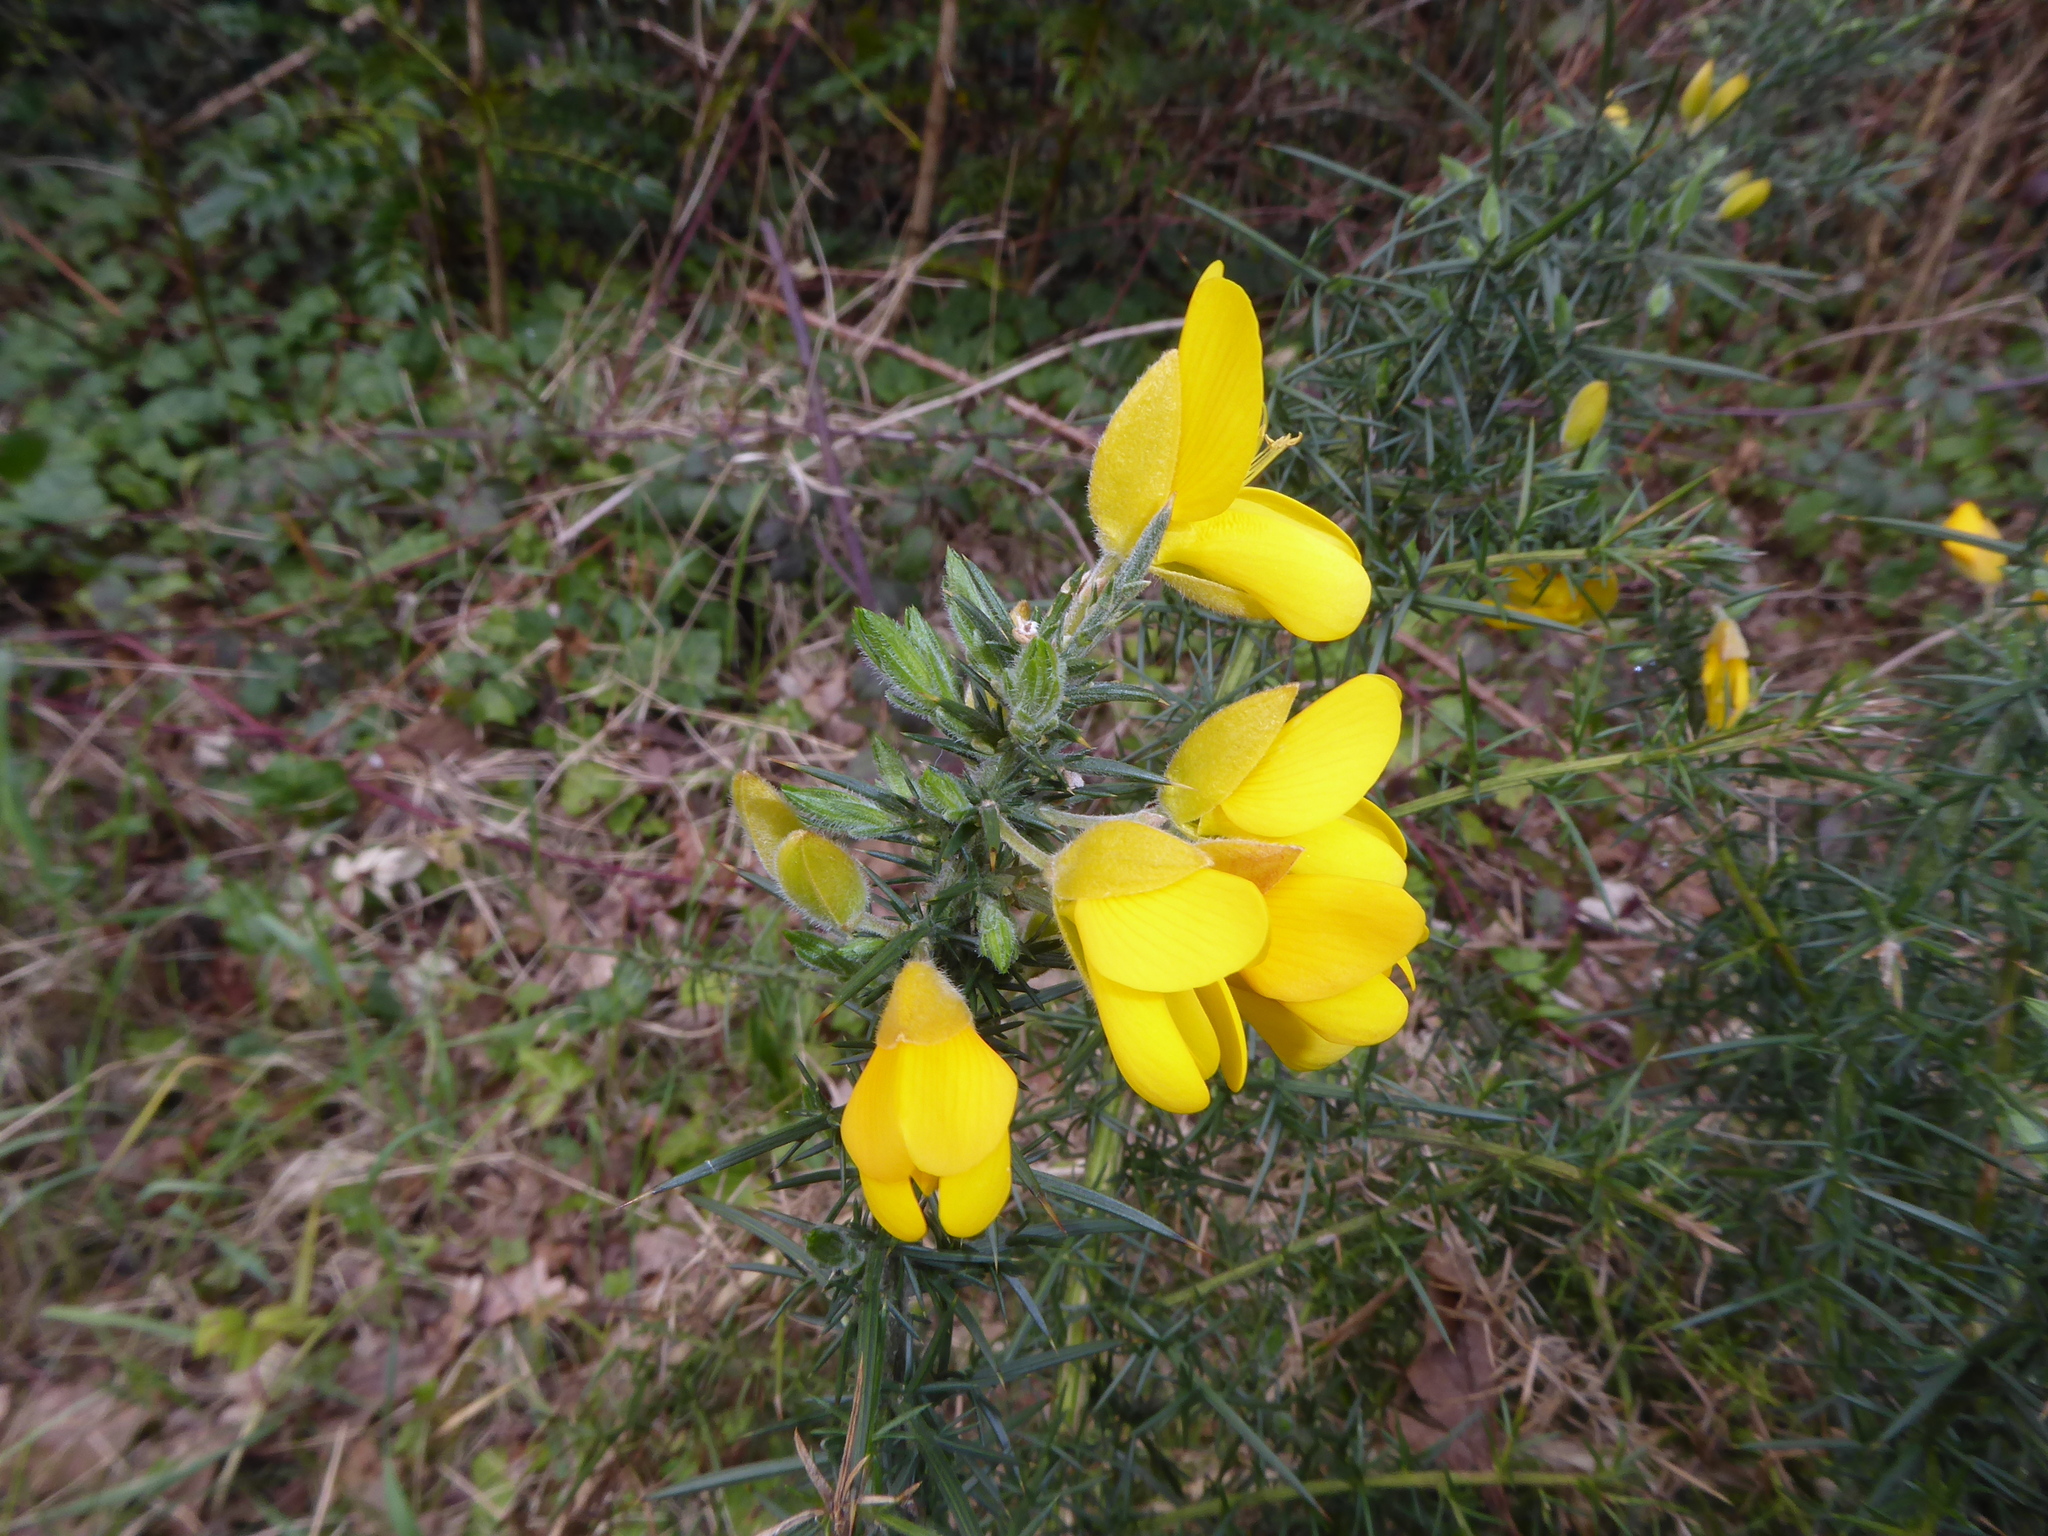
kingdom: Plantae
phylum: Tracheophyta
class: Magnoliopsida
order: Fabales
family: Fabaceae
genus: Ulex
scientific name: Ulex europaeus
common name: Common gorse
